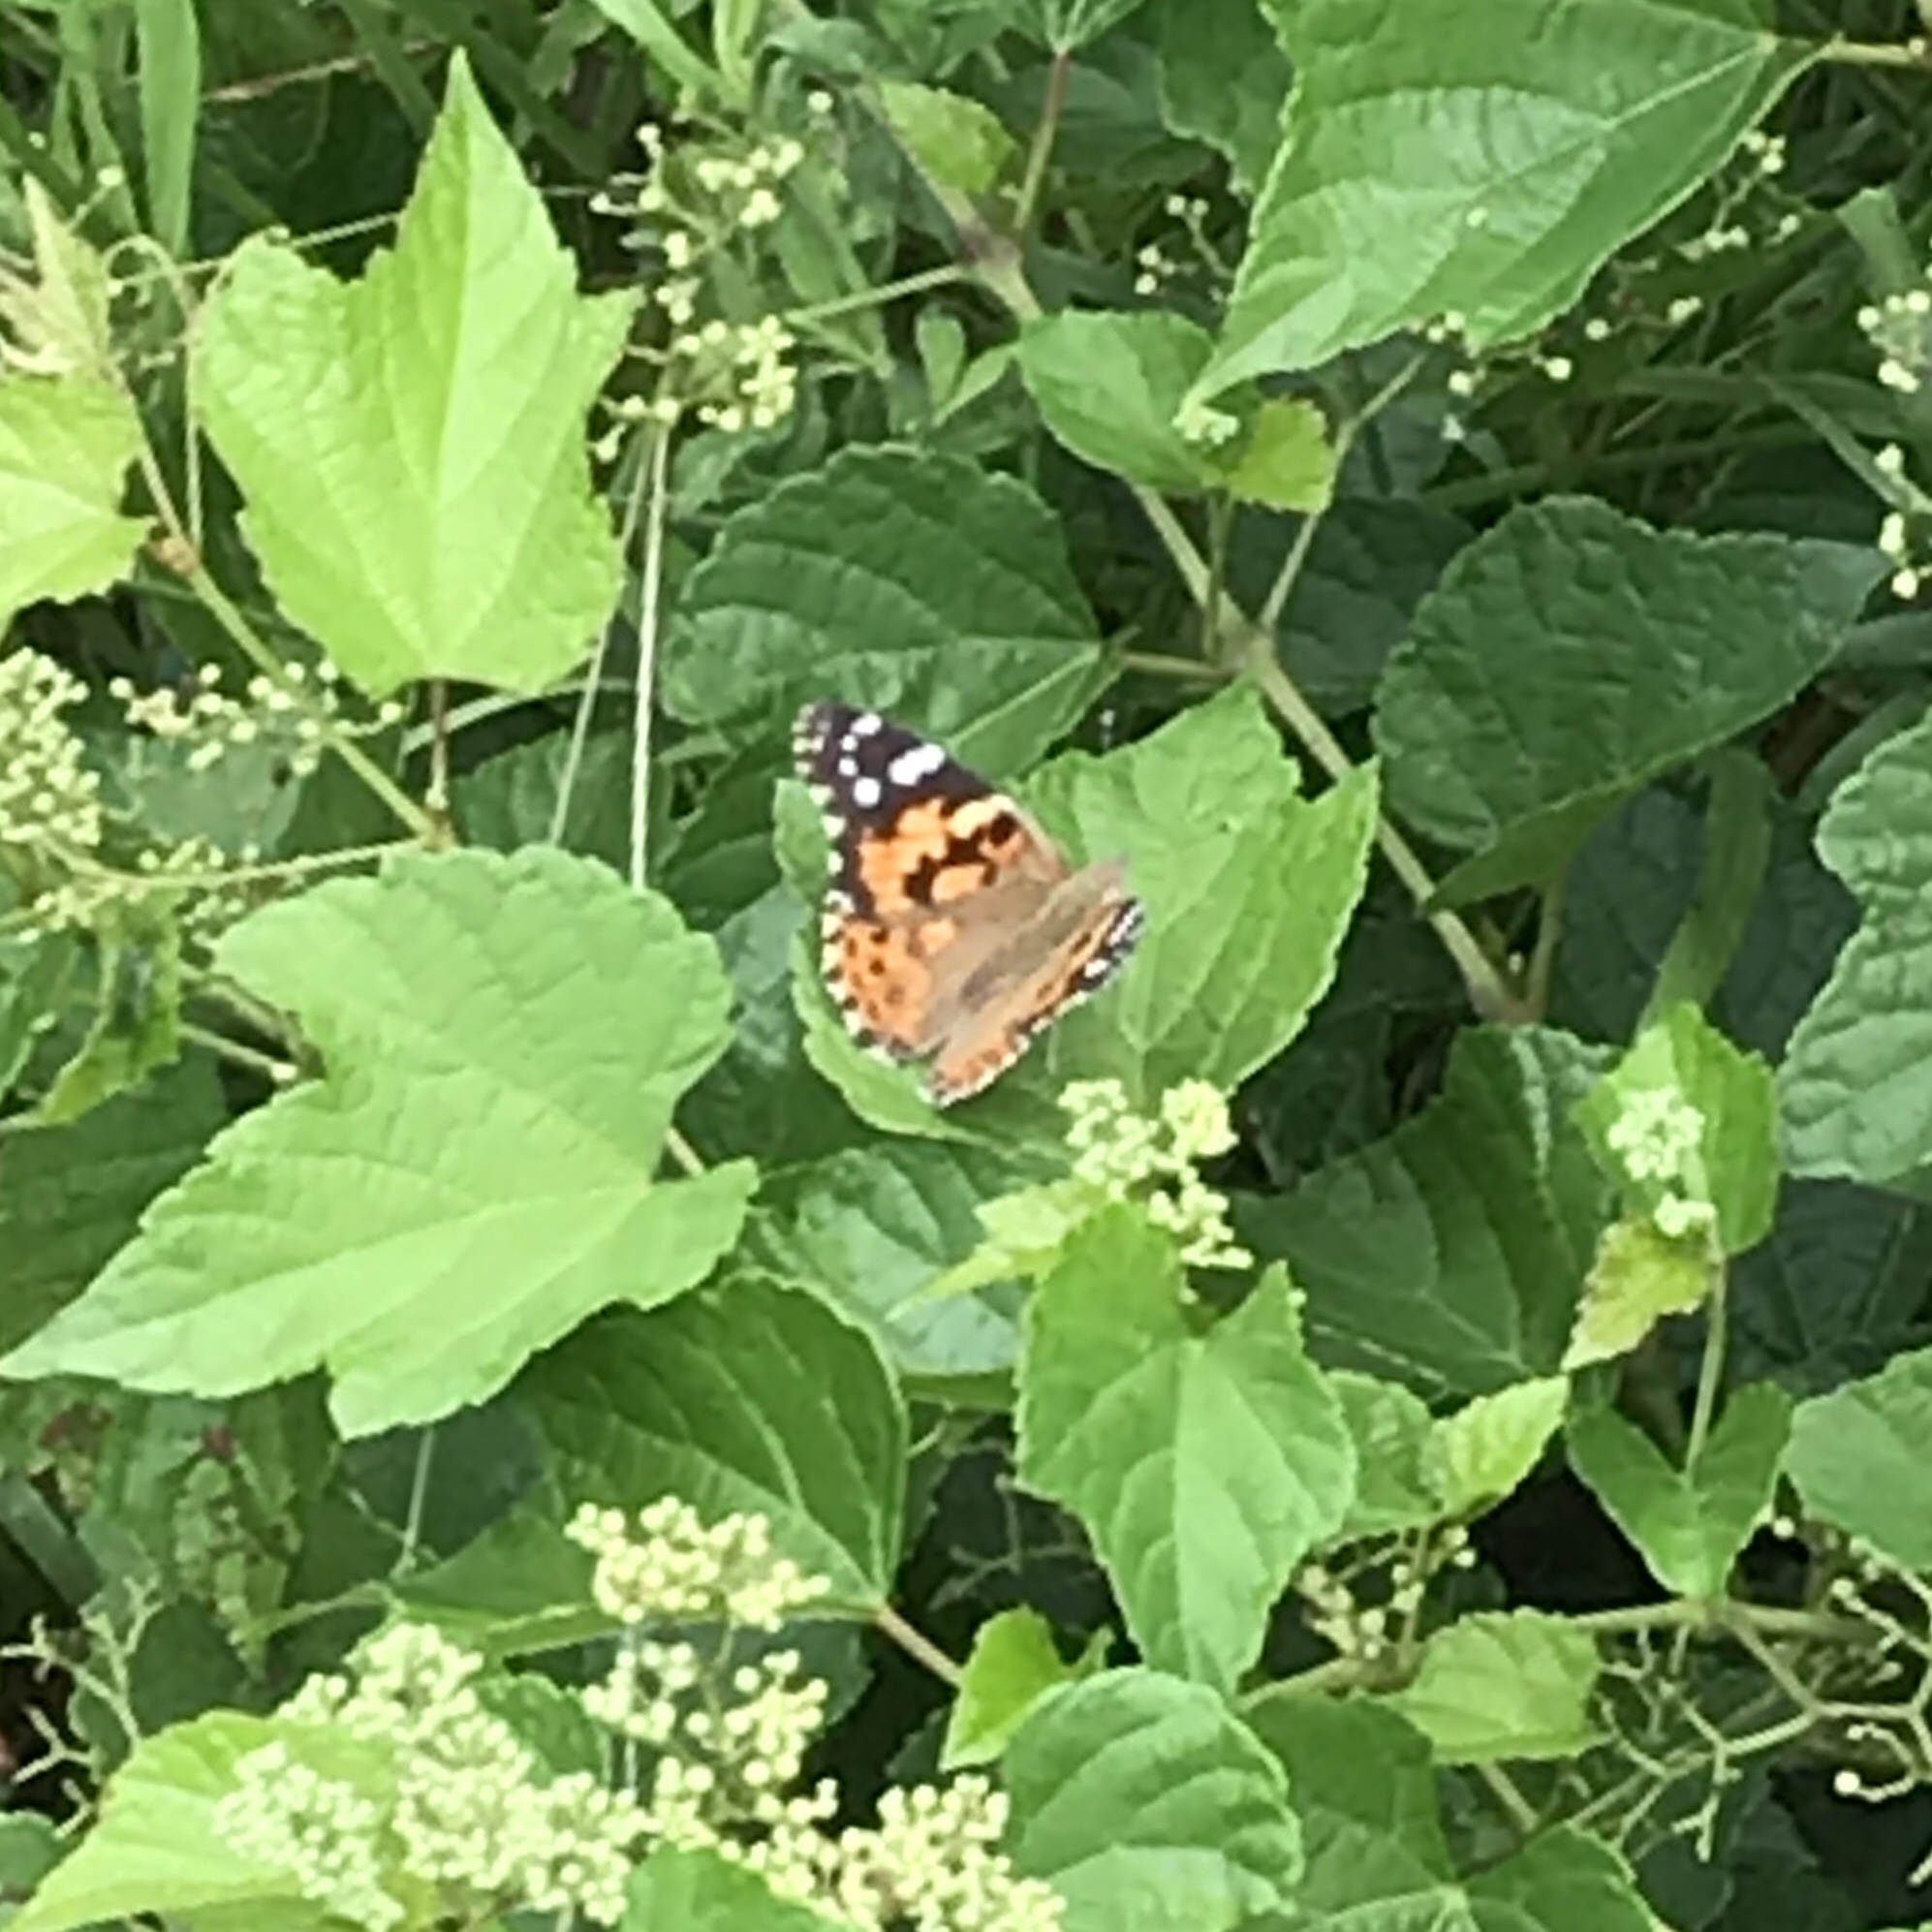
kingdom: Animalia
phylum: Arthropoda
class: Insecta
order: Lepidoptera
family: Nymphalidae
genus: Vanessa
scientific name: Vanessa cardui
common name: Painted lady
